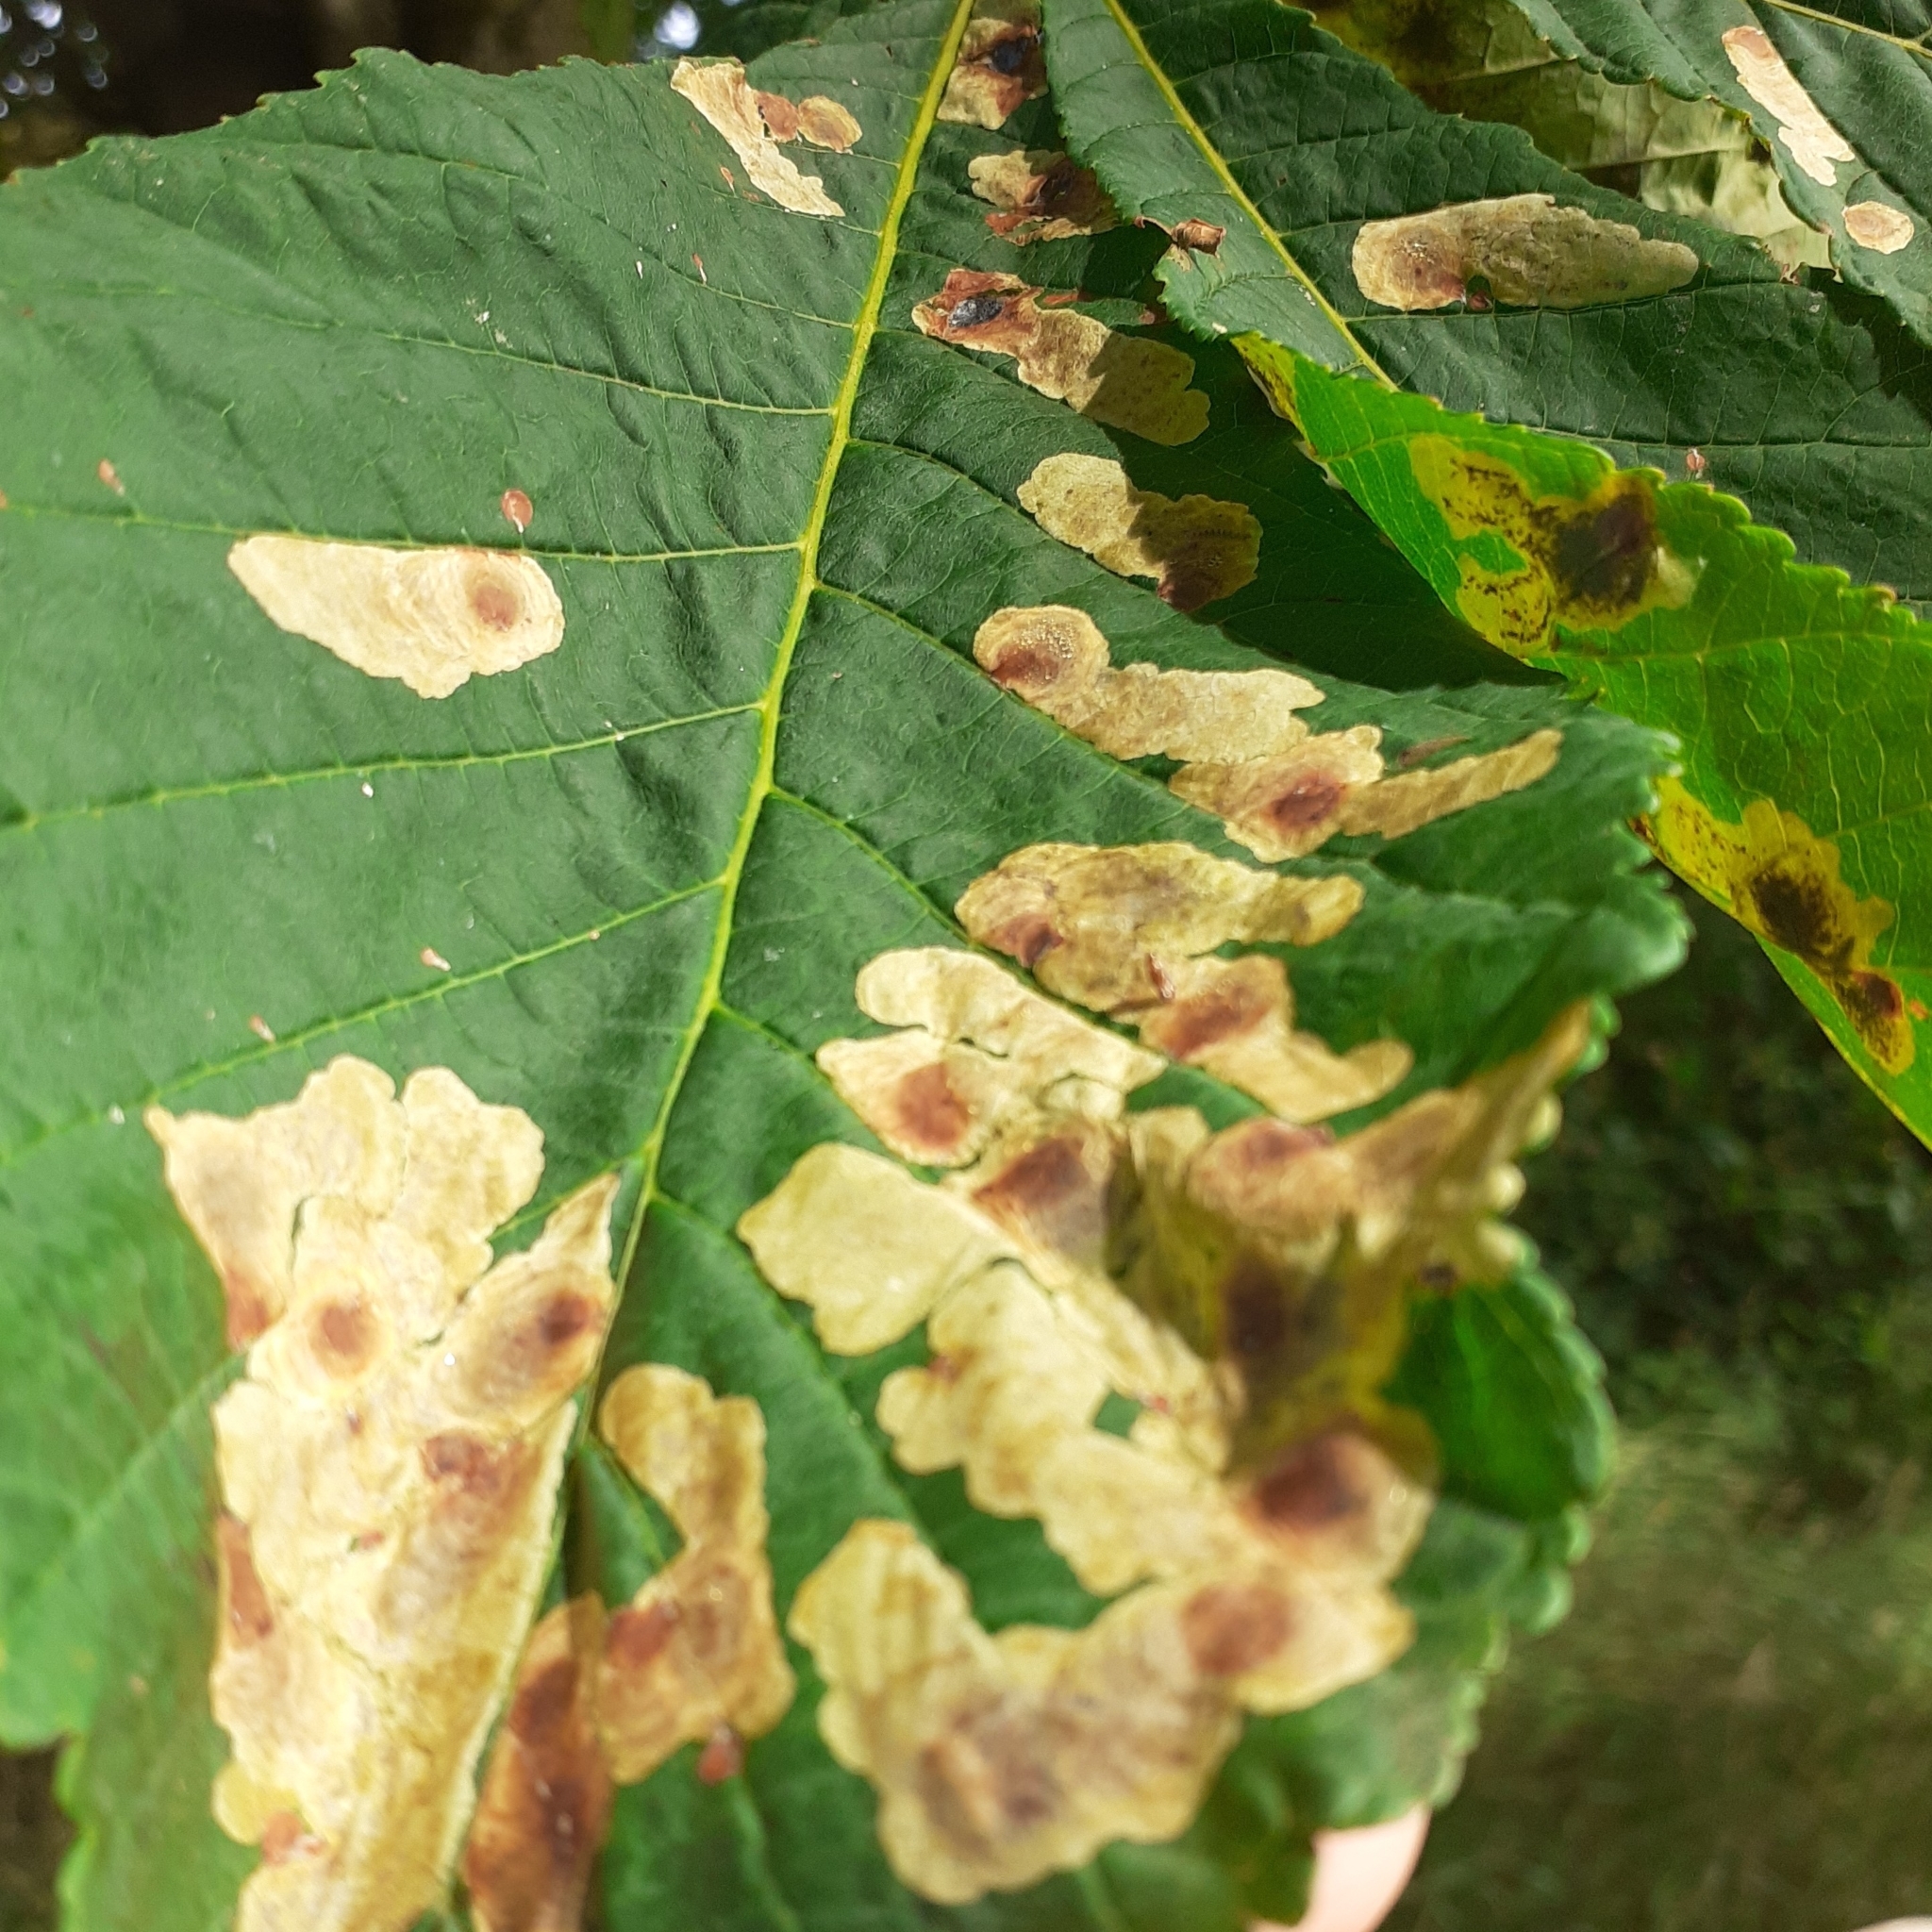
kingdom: Animalia
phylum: Arthropoda
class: Insecta
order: Lepidoptera
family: Gracillariidae
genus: Cameraria
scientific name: Cameraria ohridella
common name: Horse-chestnut leaf-miner
